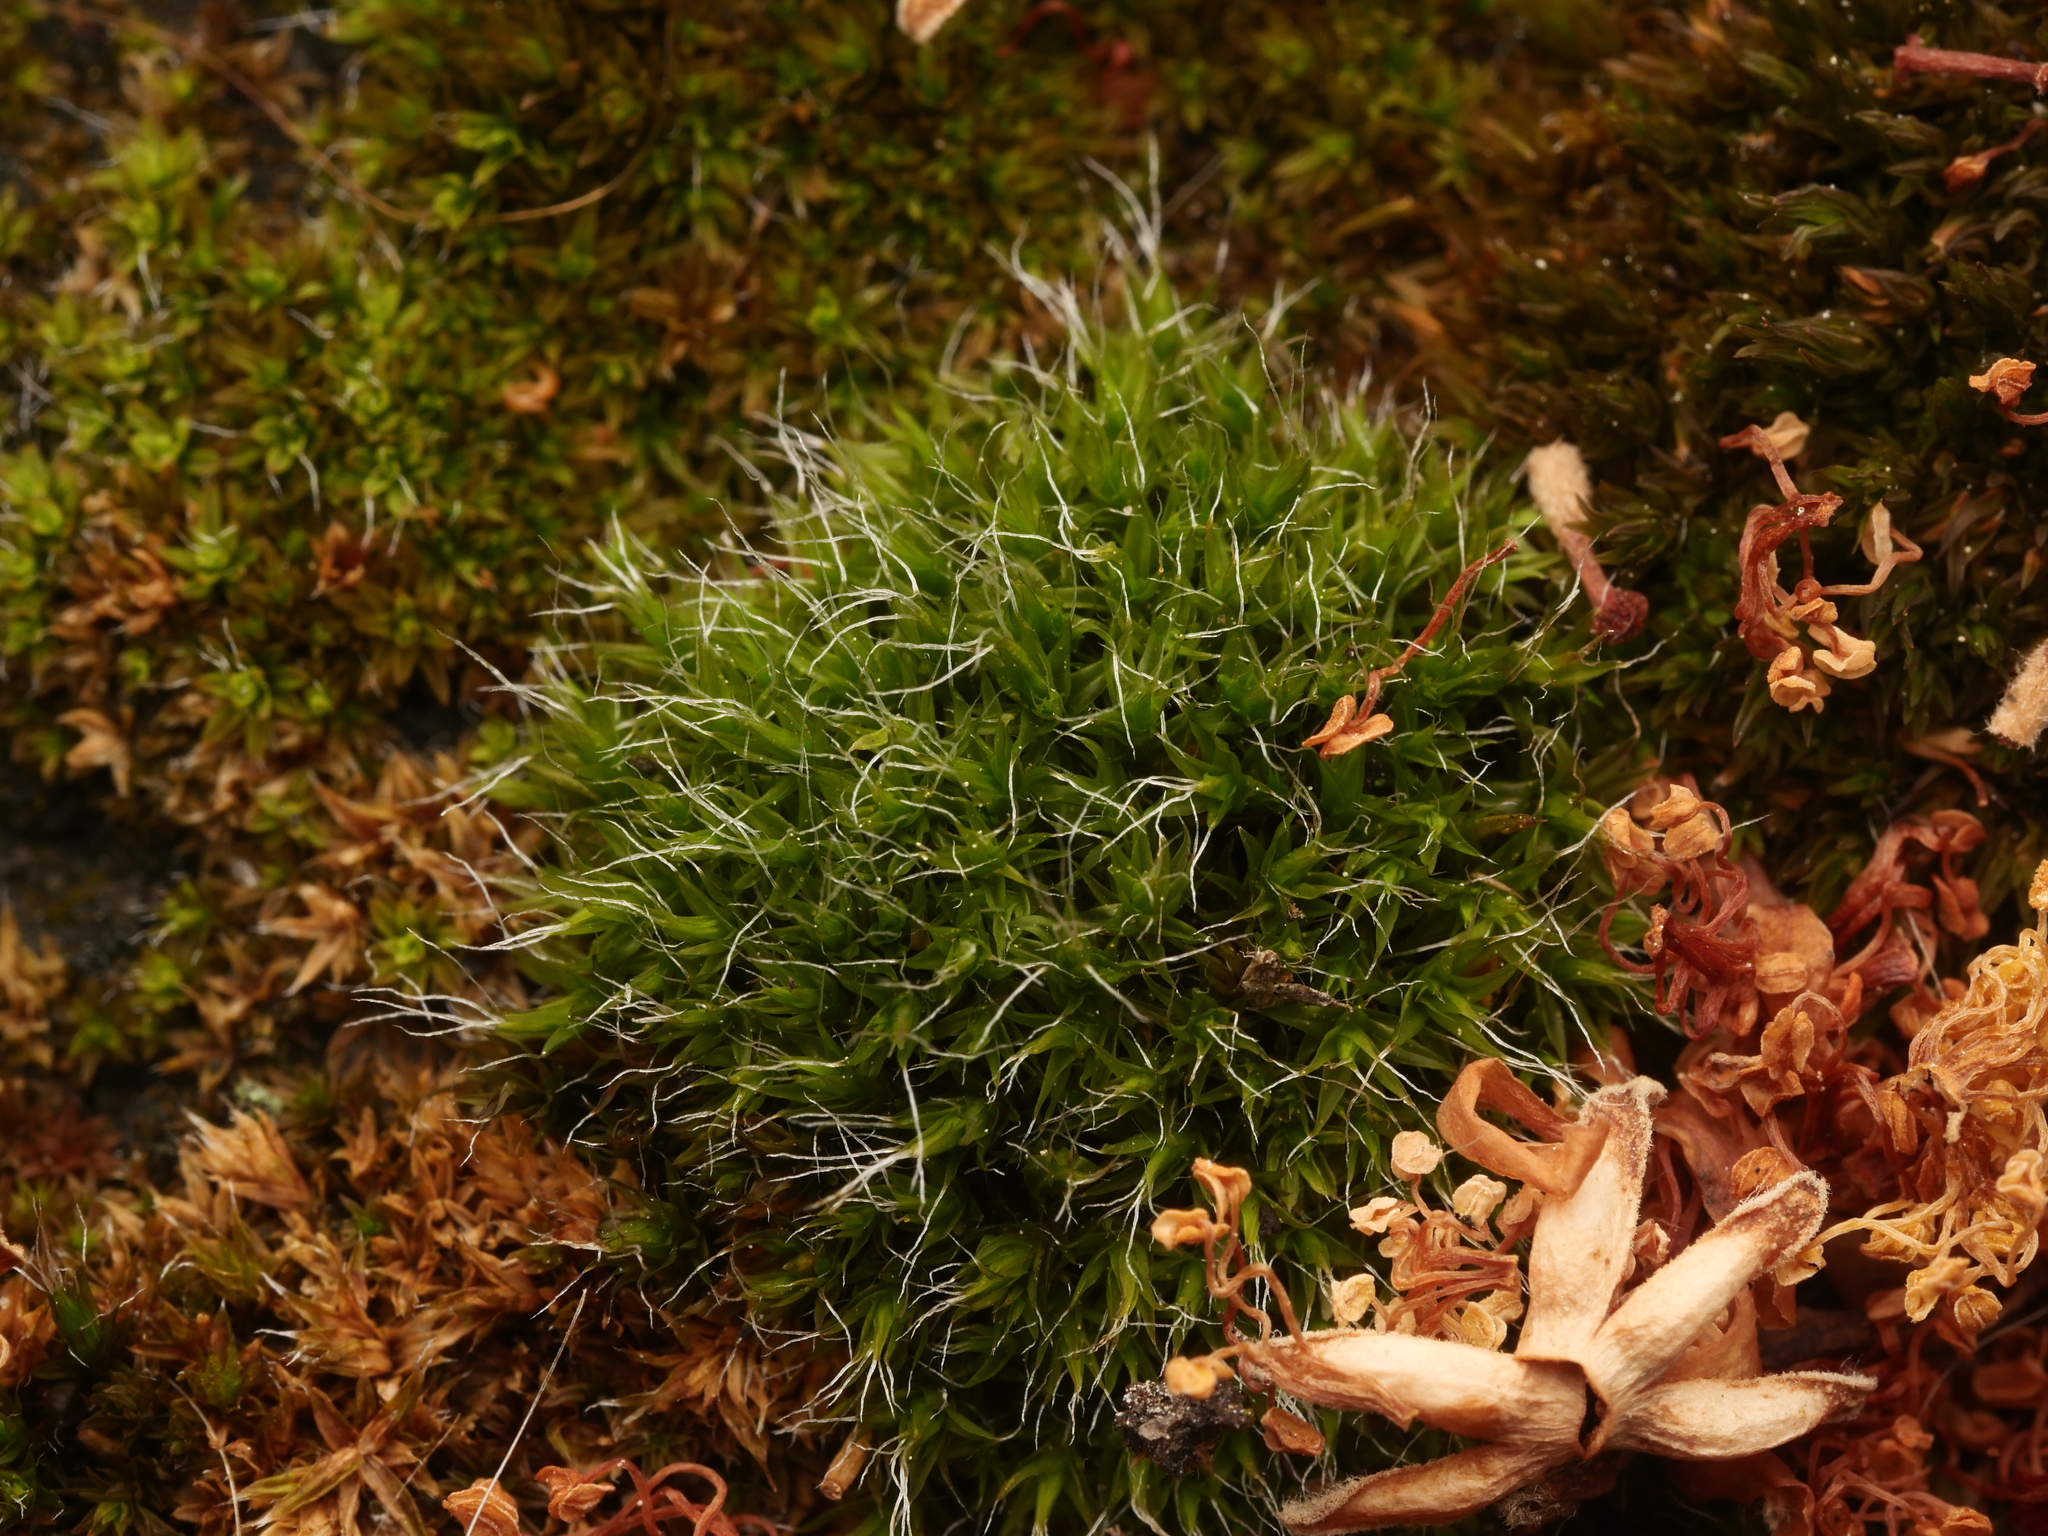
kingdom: Plantae
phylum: Bryophyta
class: Bryopsida
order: Grimmiales
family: Grimmiaceae
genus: Grimmia
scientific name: Grimmia pulvinata
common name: Grey-cushioned grimmia
